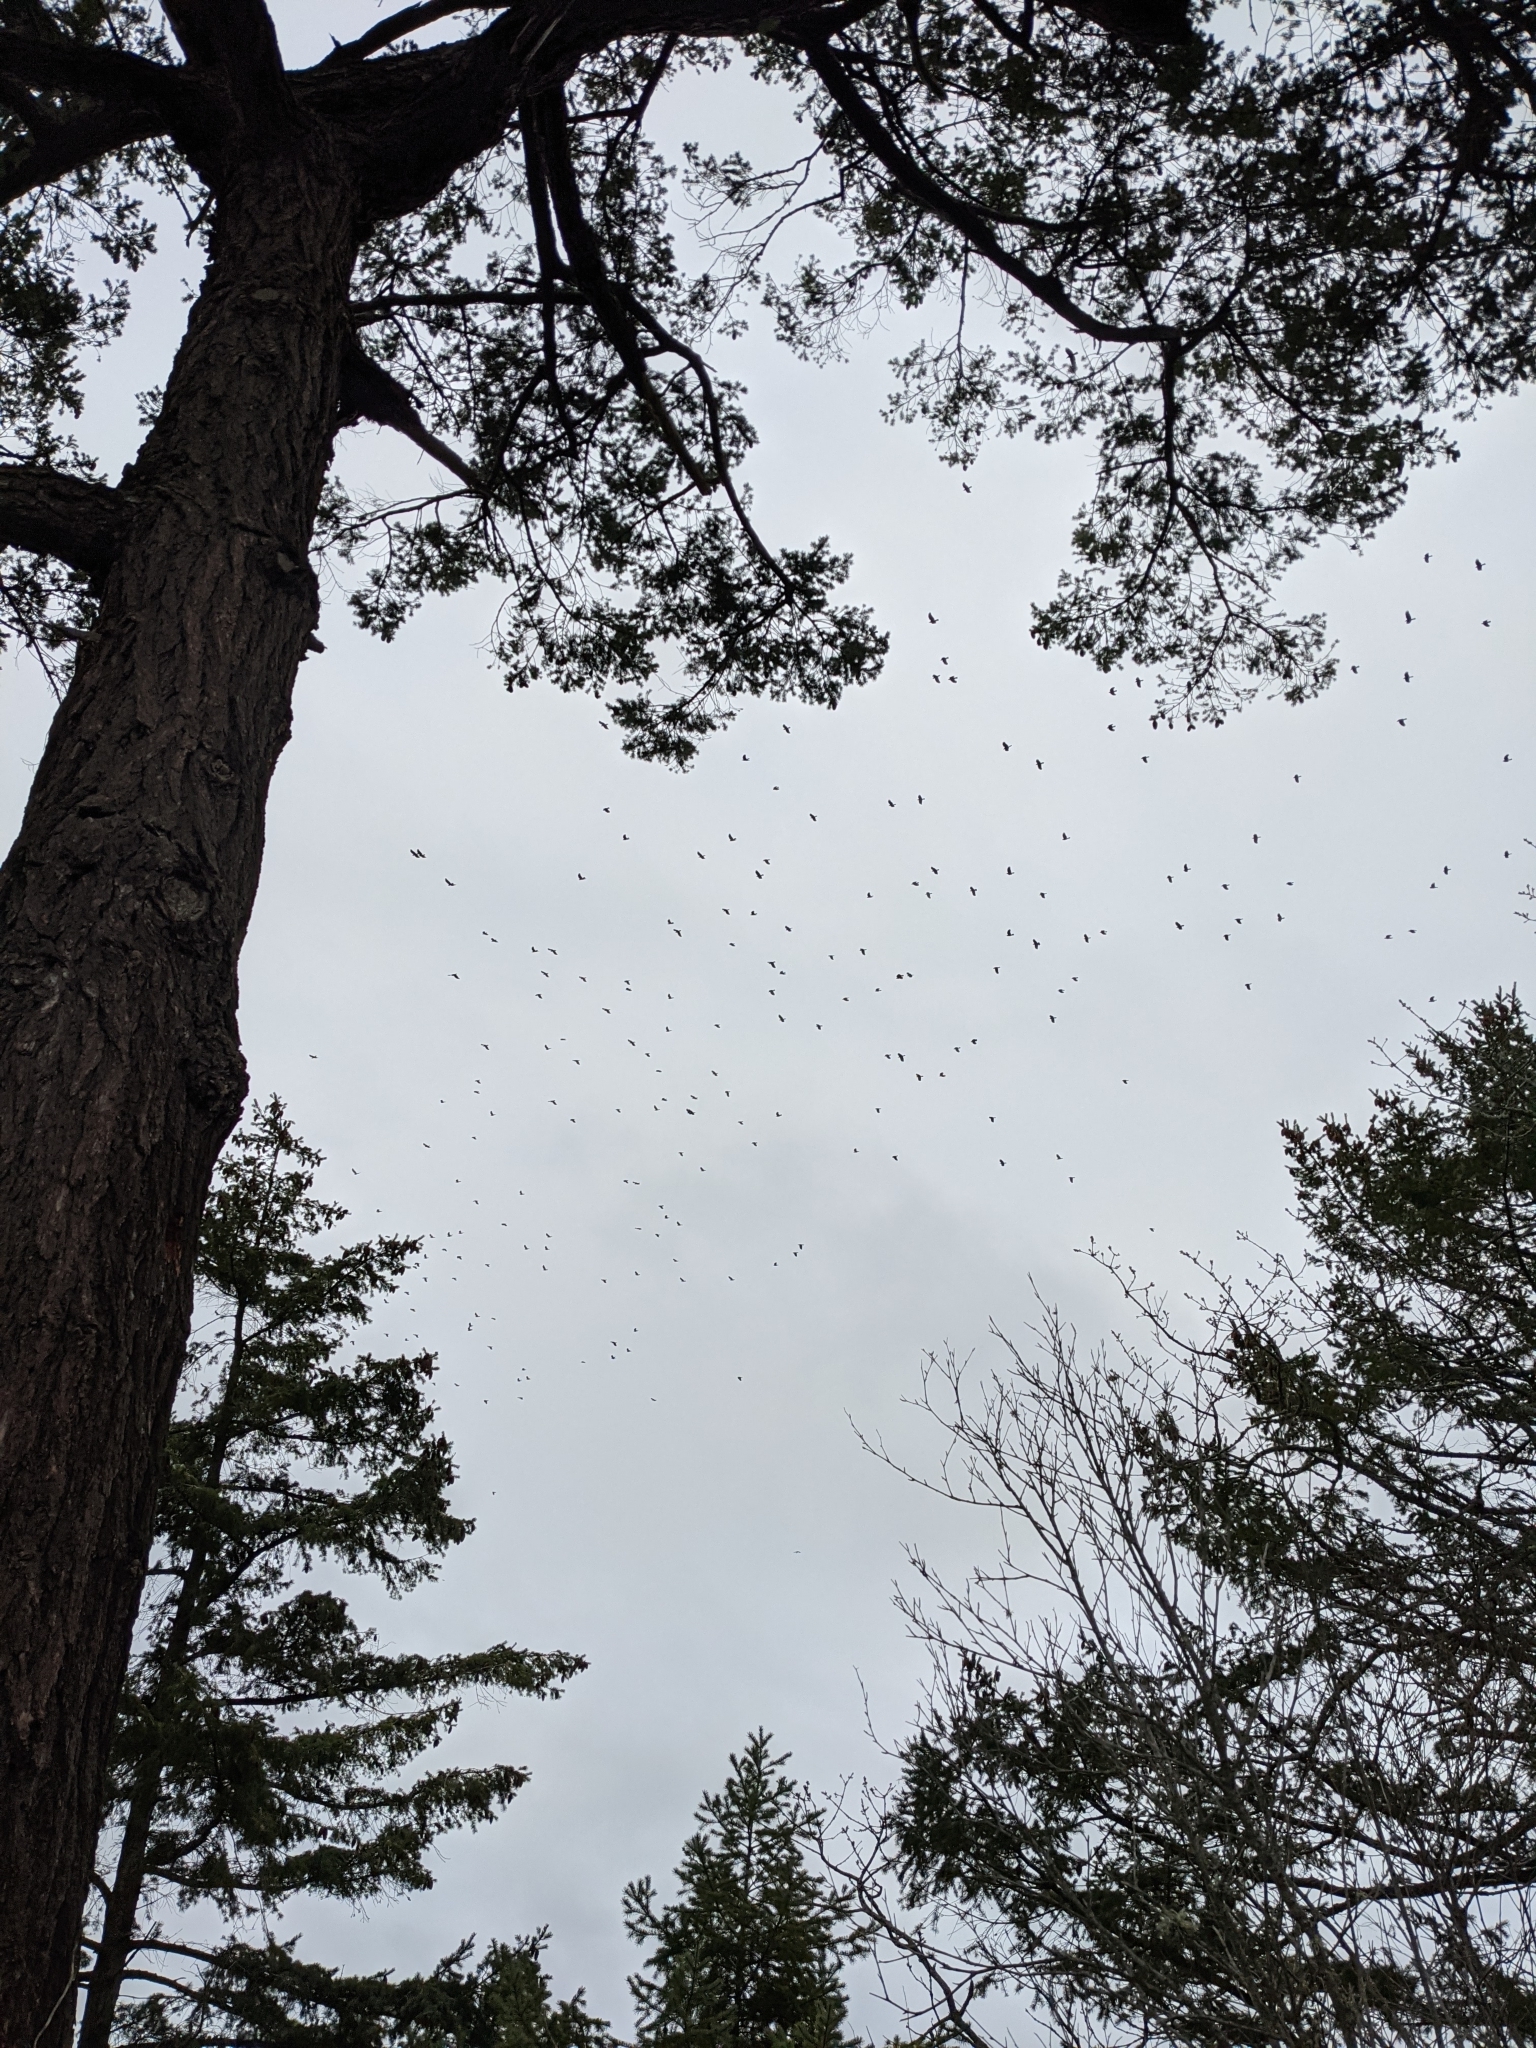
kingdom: Animalia
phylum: Chordata
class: Aves
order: Passeriformes
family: Corvidae
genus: Corvus
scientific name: Corvus brachyrhynchos
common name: American crow
